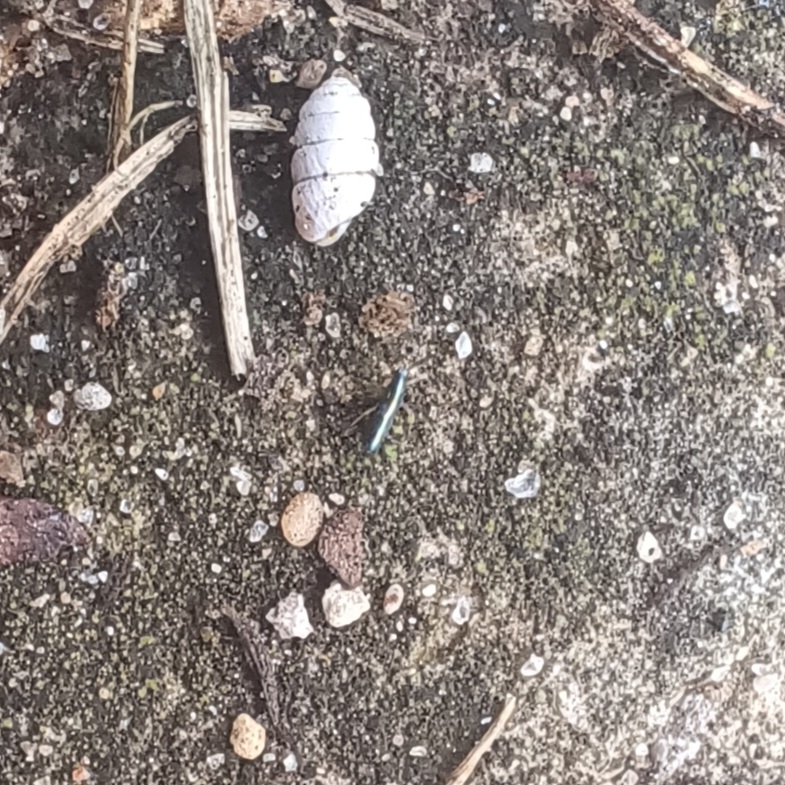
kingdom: Animalia
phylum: Arthropoda
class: Collembola
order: Entomobryomorpha
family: Entomobryidae
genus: Lepidocyrtus
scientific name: Lepidocyrtus paradoxus
